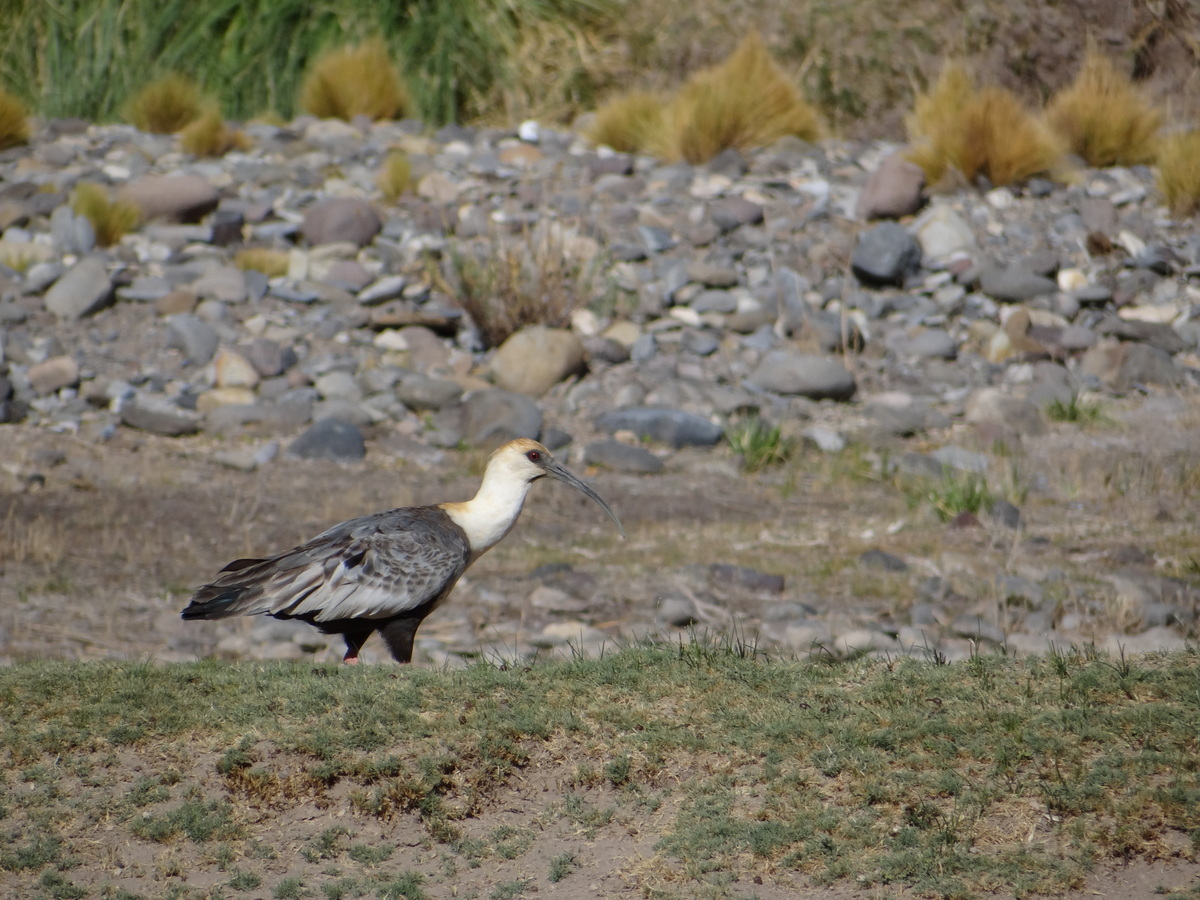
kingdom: Animalia
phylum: Chordata
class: Aves
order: Pelecaniformes
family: Threskiornithidae
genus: Theristicus
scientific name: Theristicus melanopis
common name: Black-faced ibis
